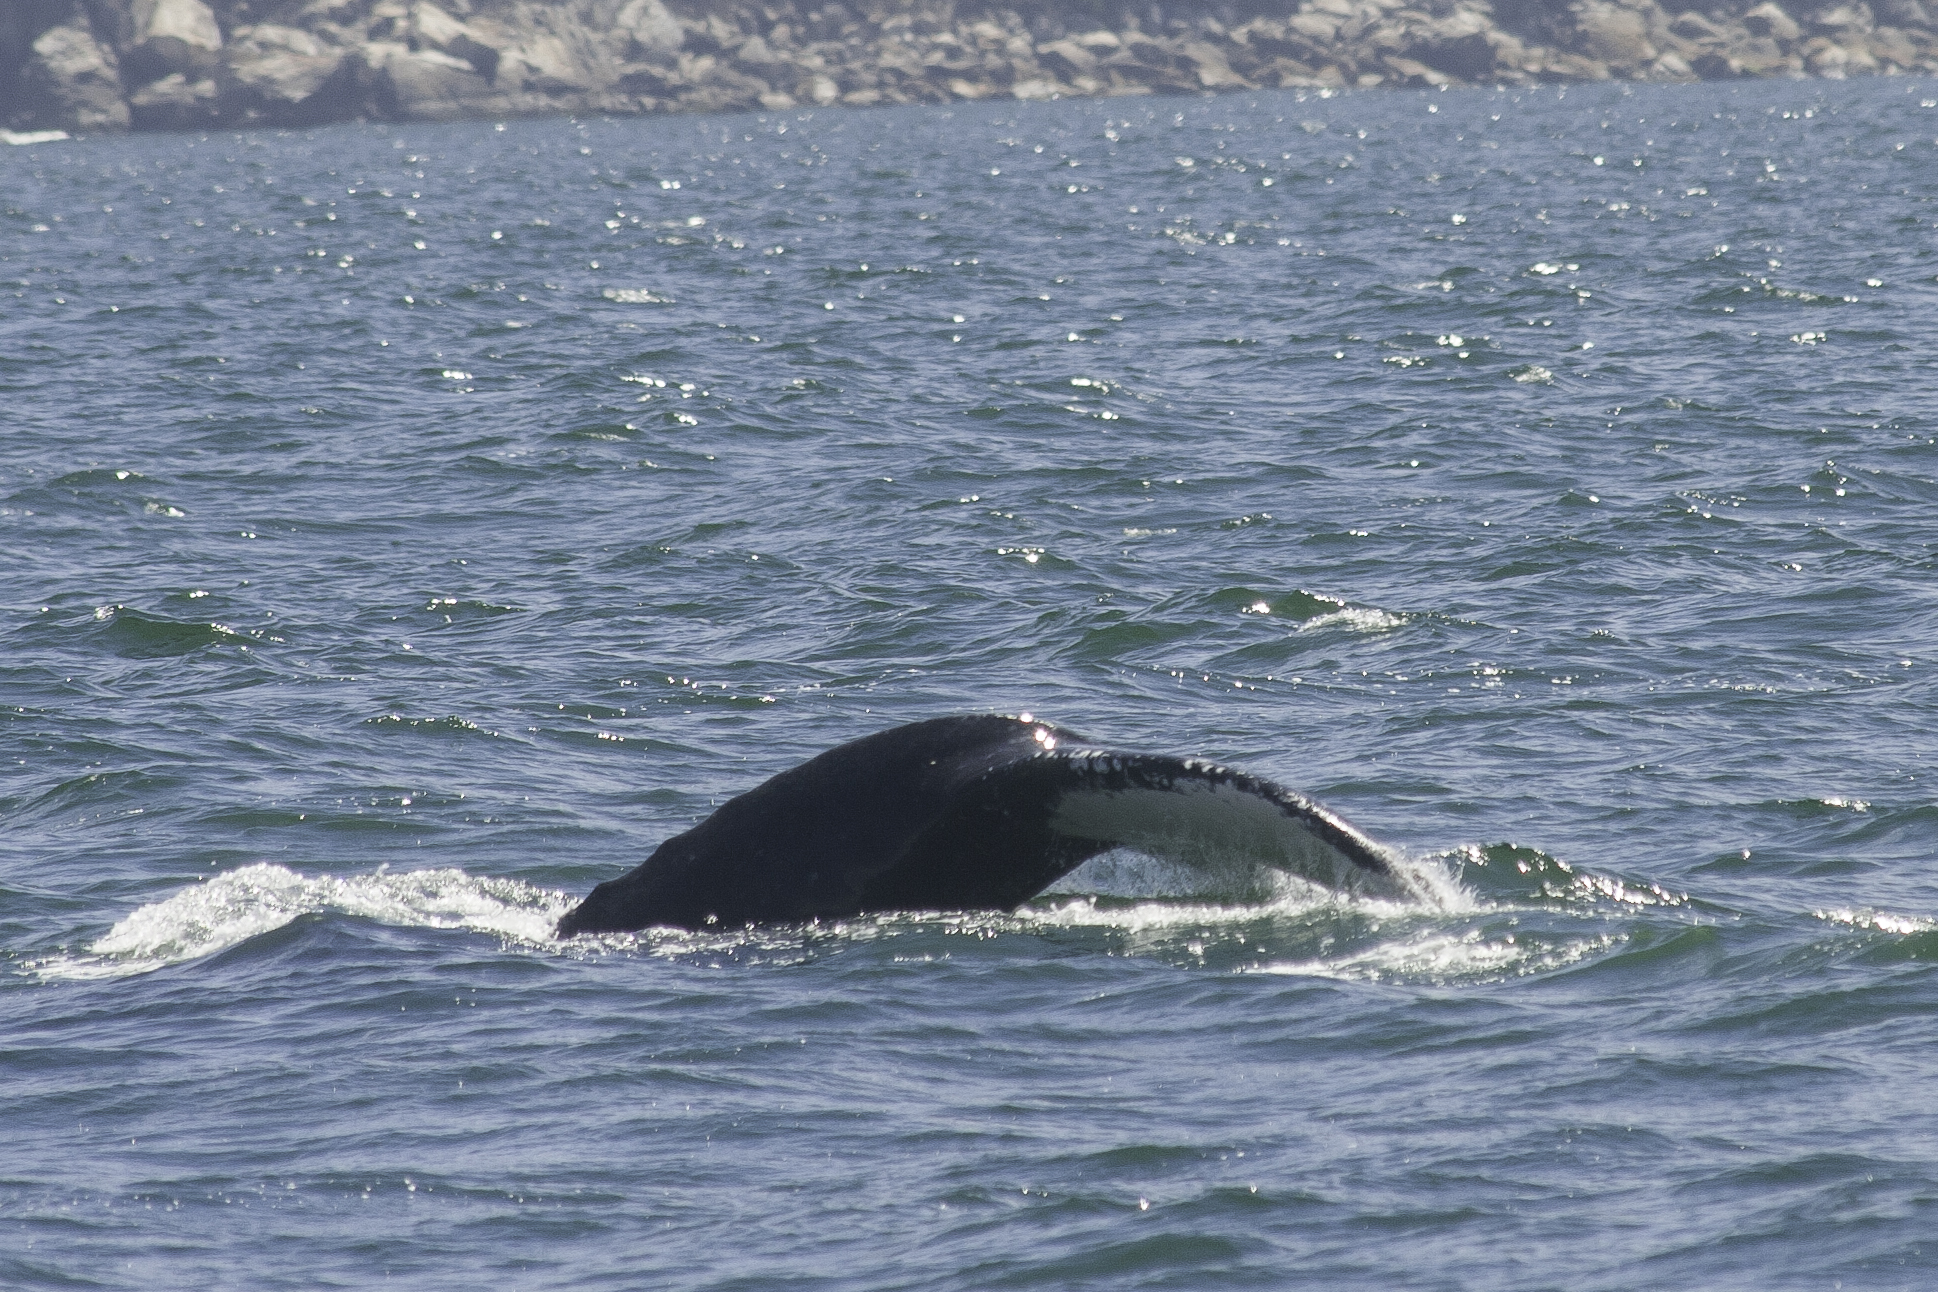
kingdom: Animalia
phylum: Chordata
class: Mammalia
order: Cetacea
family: Balaenopteridae
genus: Megaptera
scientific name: Megaptera novaeangliae
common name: Humpback whale
